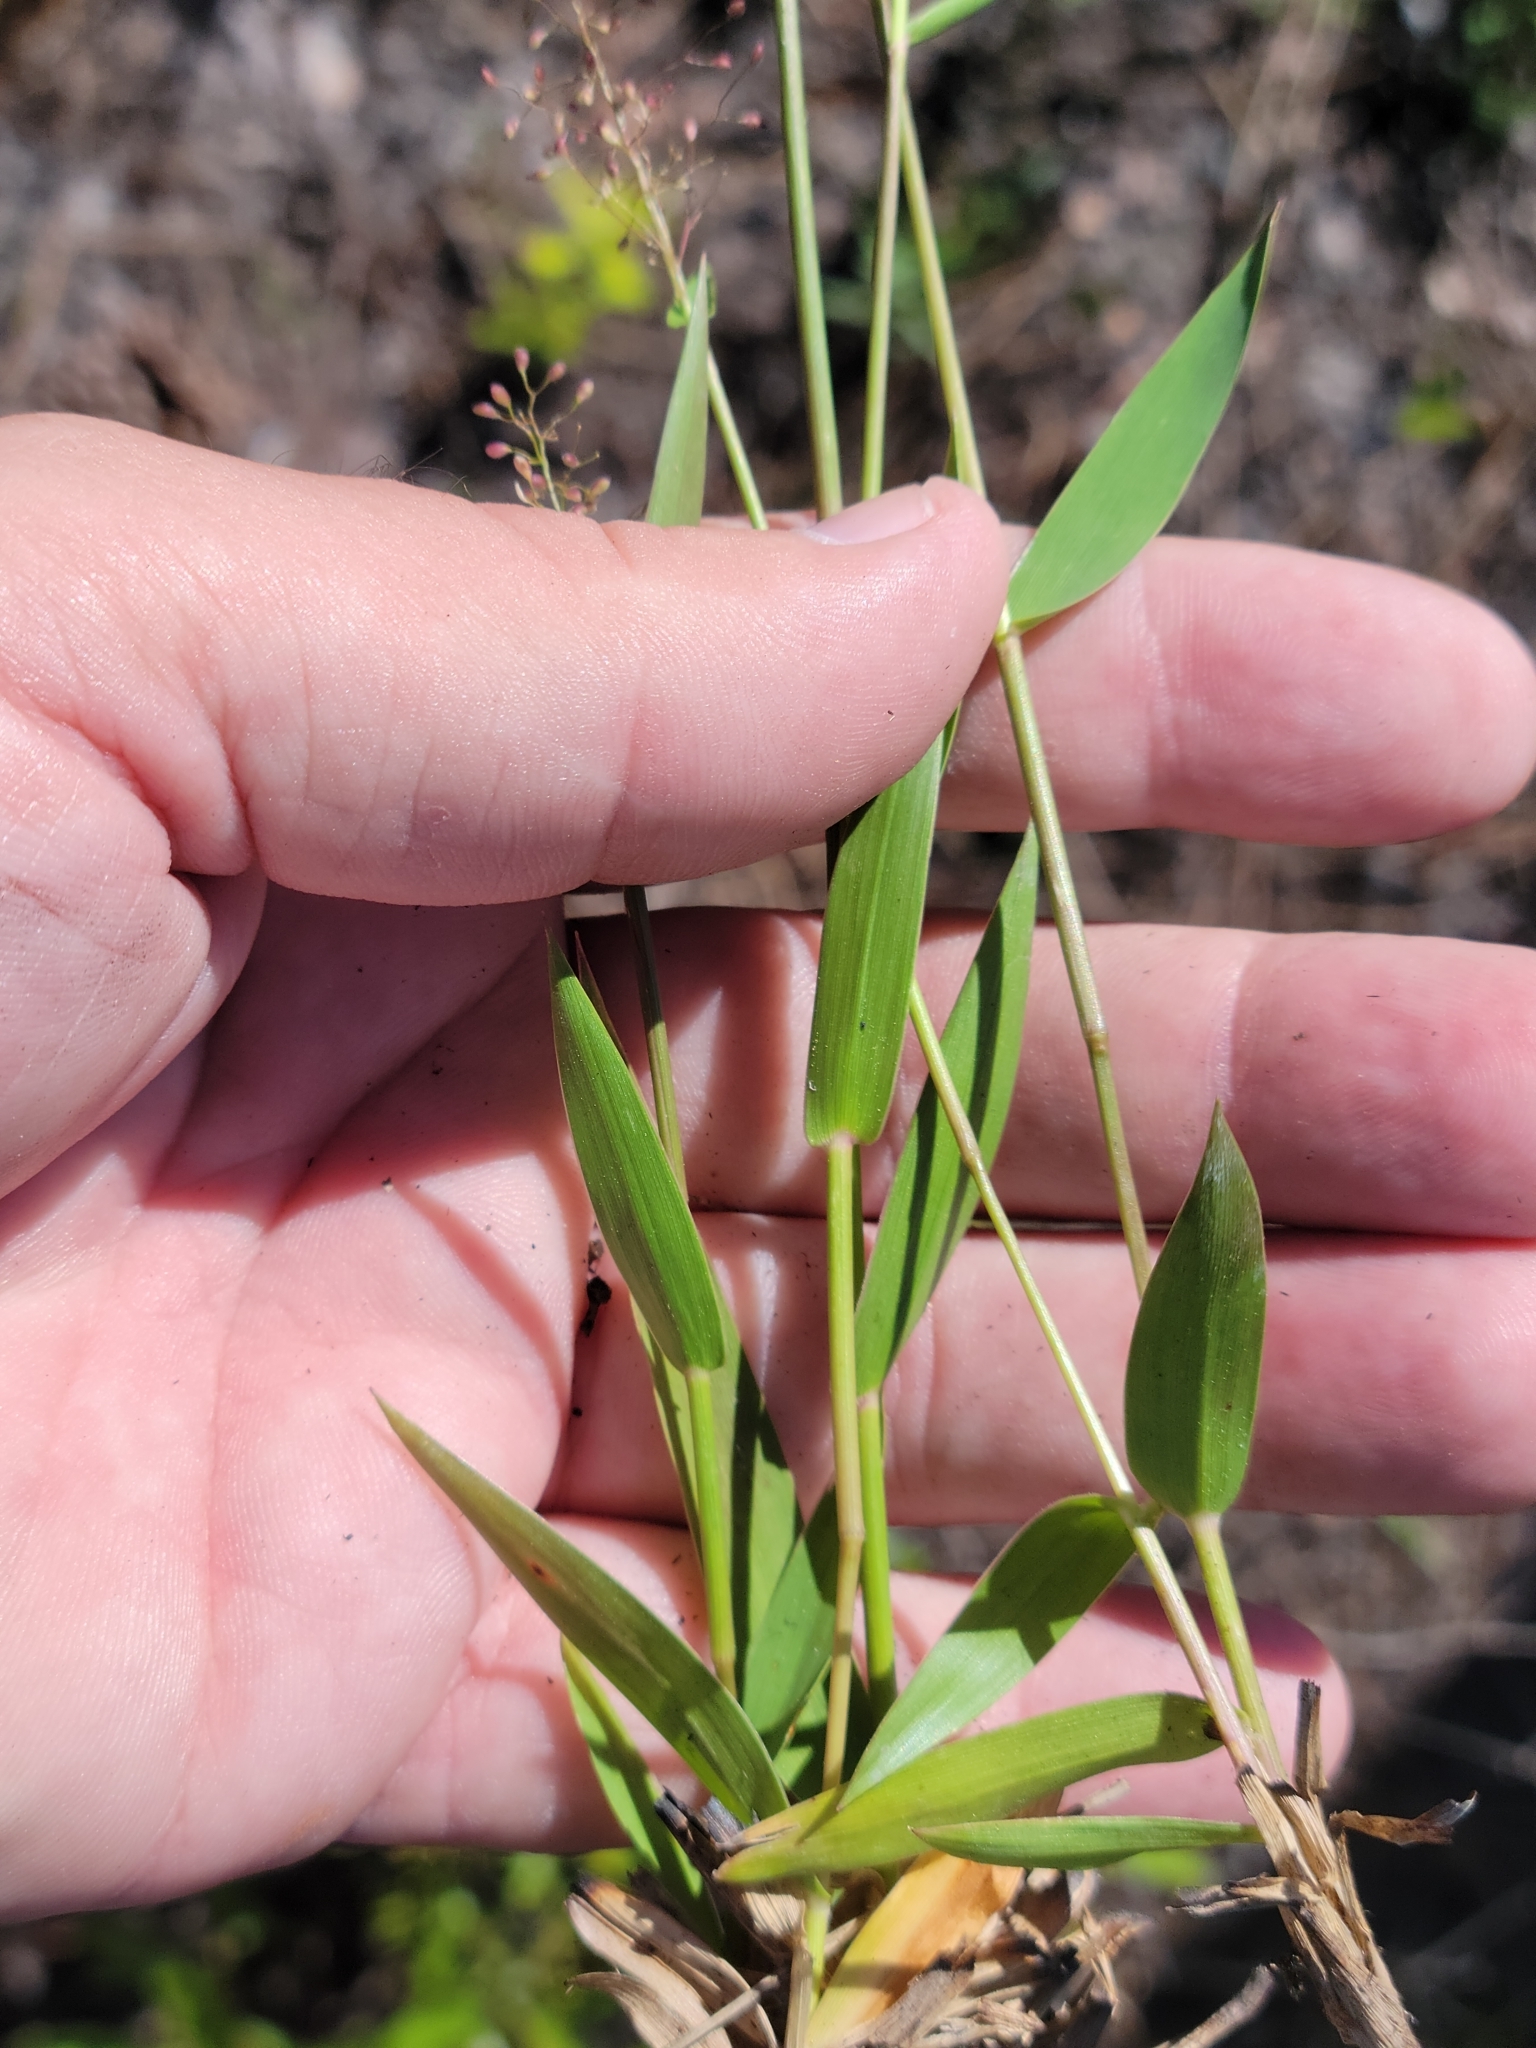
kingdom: Plantae
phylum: Tracheophyta
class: Liliopsida
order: Poales
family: Poaceae
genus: Dichanthelium
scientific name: Dichanthelium tenue
